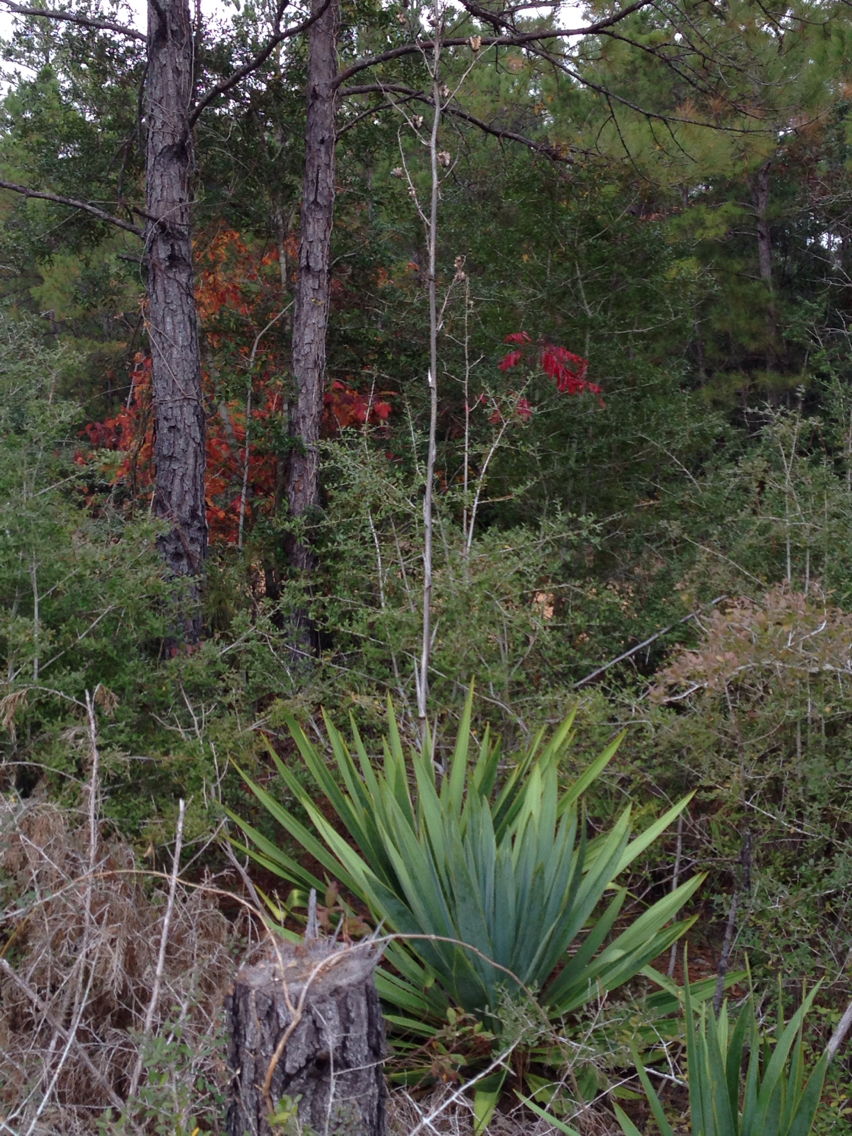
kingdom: Plantae
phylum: Tracheophyta
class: Liliopsida
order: Asparagales
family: Asparagaceae
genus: Yucca
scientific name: Yucca cernua
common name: Nodding yucca
